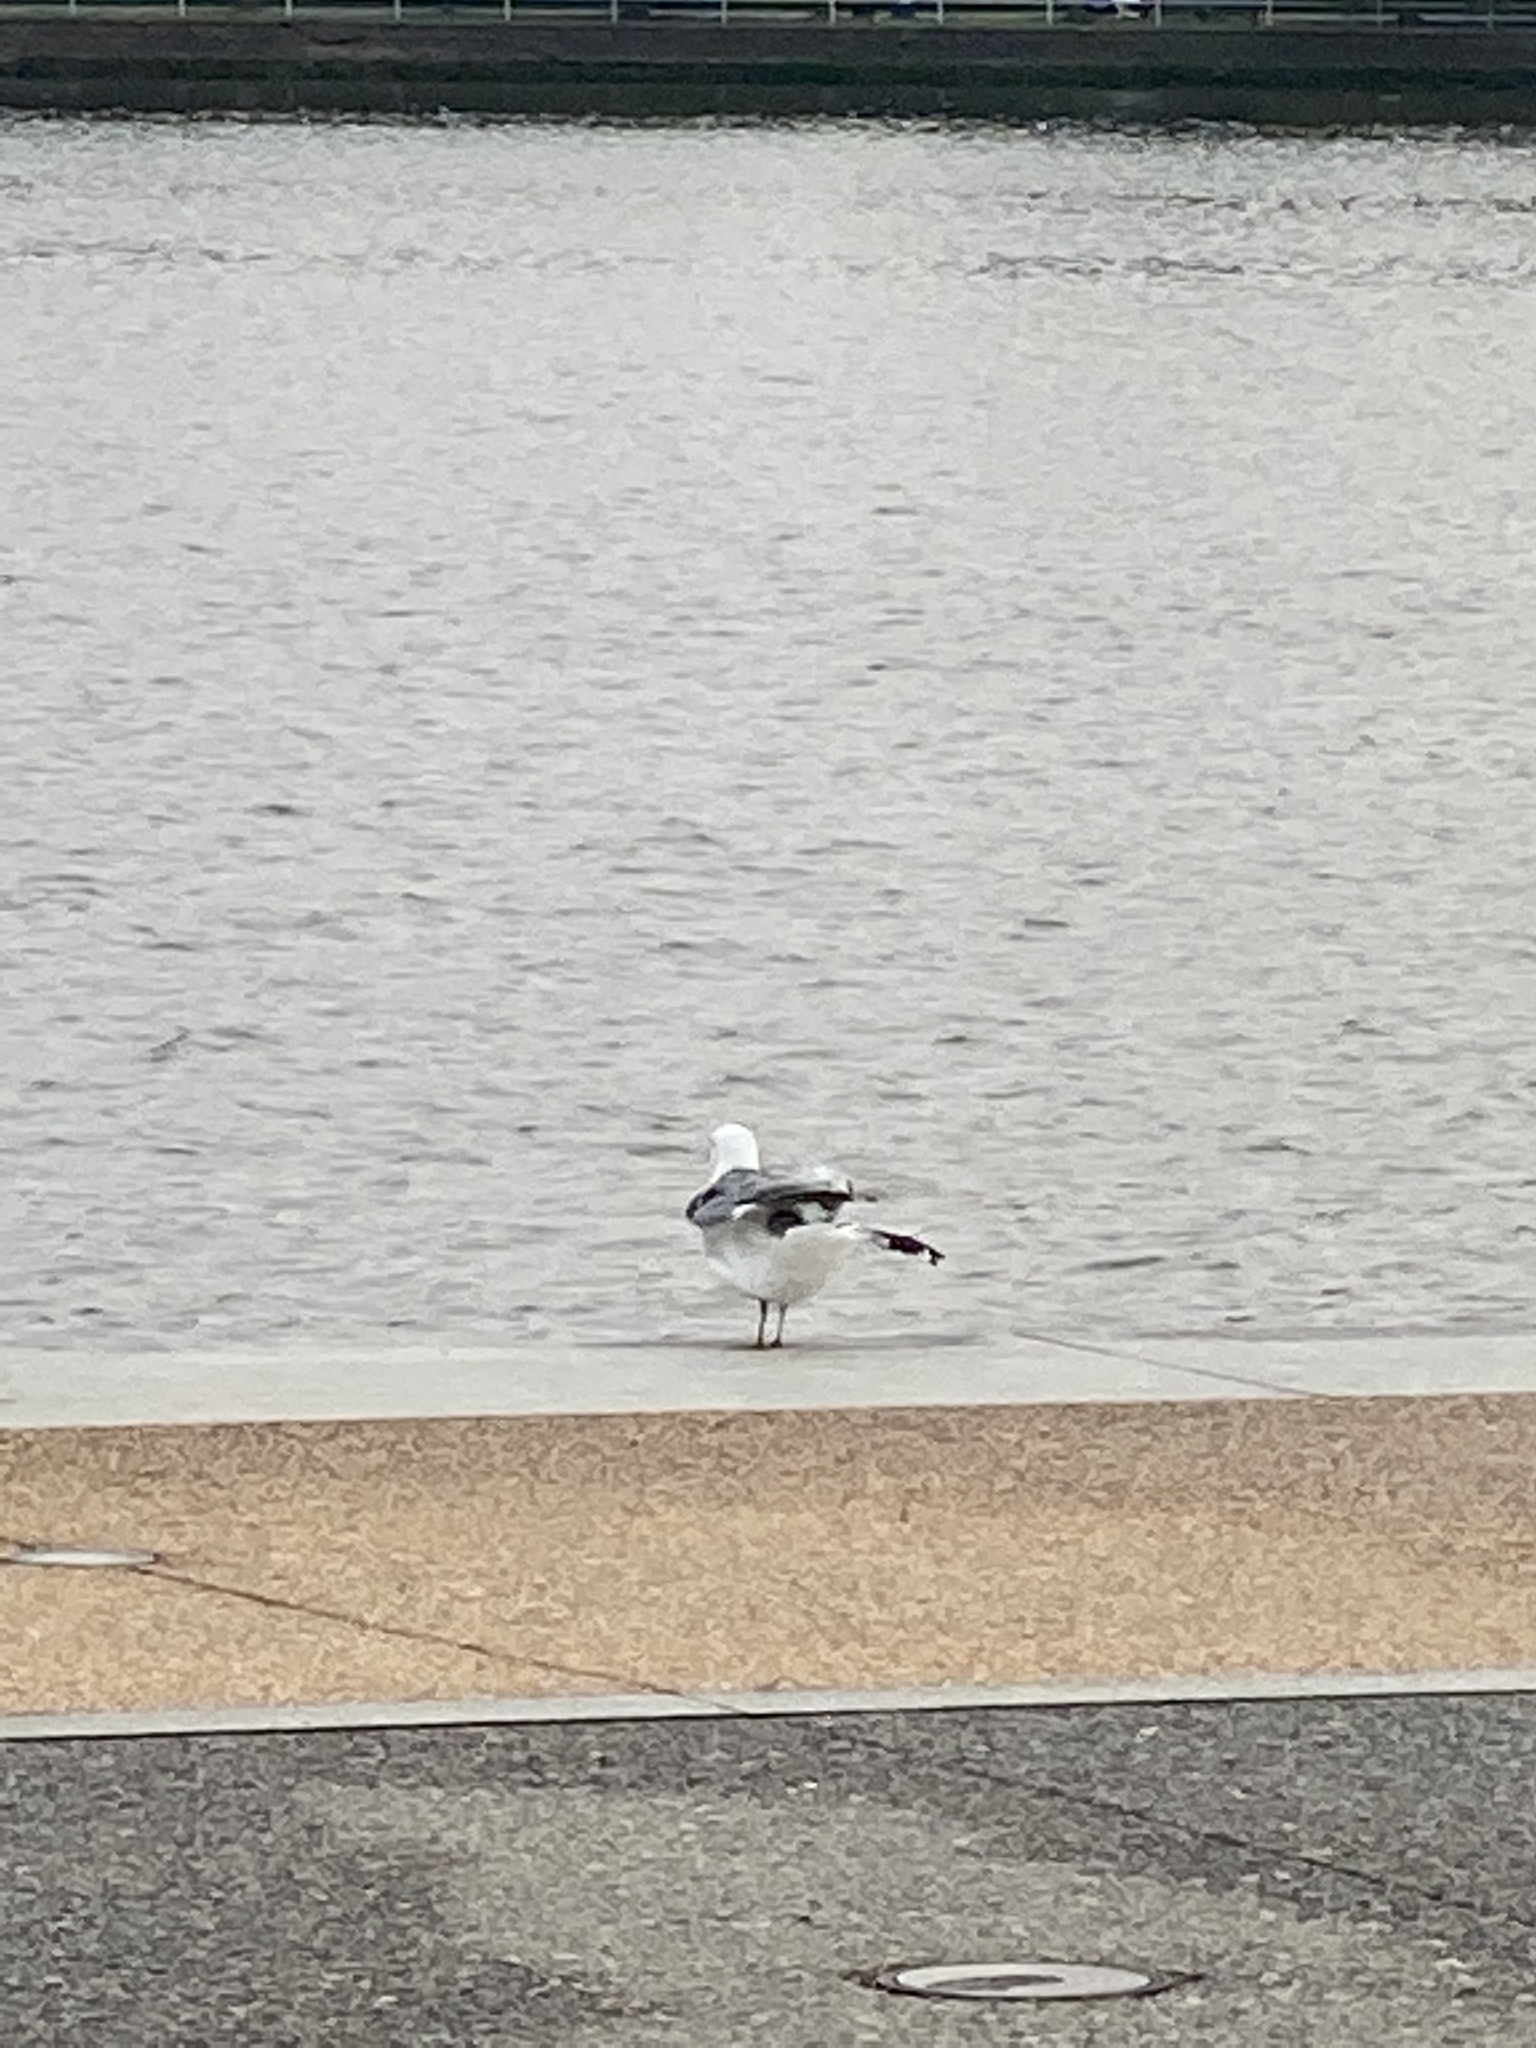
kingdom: Animalia
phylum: Chordata
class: Aves
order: Charadriiformes
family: Laridae
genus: Larus
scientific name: Larus delawarensis
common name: Ring-billed gull
